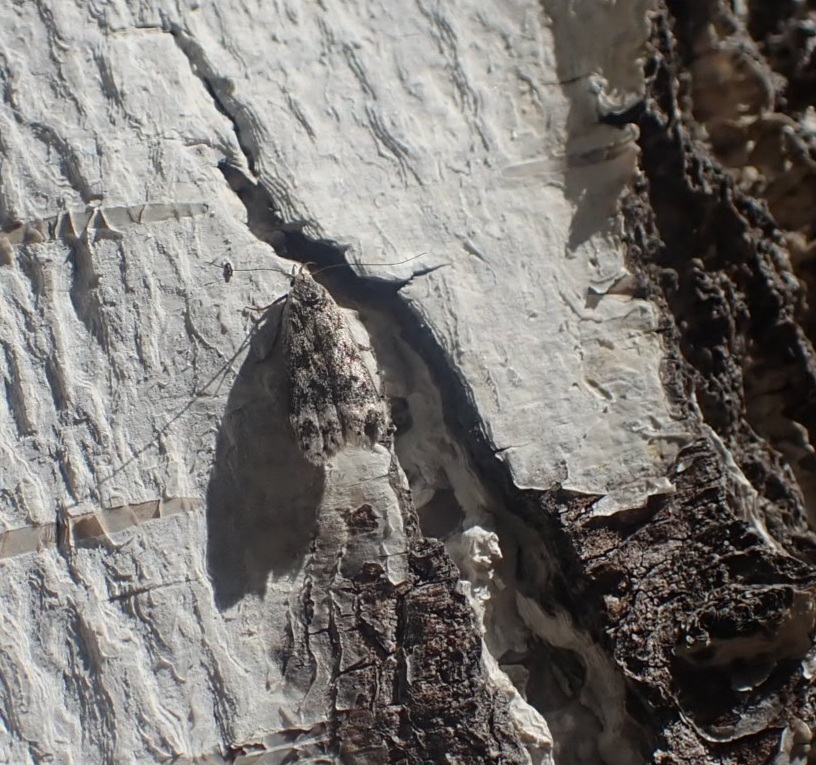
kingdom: Animalia
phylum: Arthropoda
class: Insecta
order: Lepidoptera
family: Gelechiidae
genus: Anacampsis
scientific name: Anacampsis blattariella
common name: Birch sober
